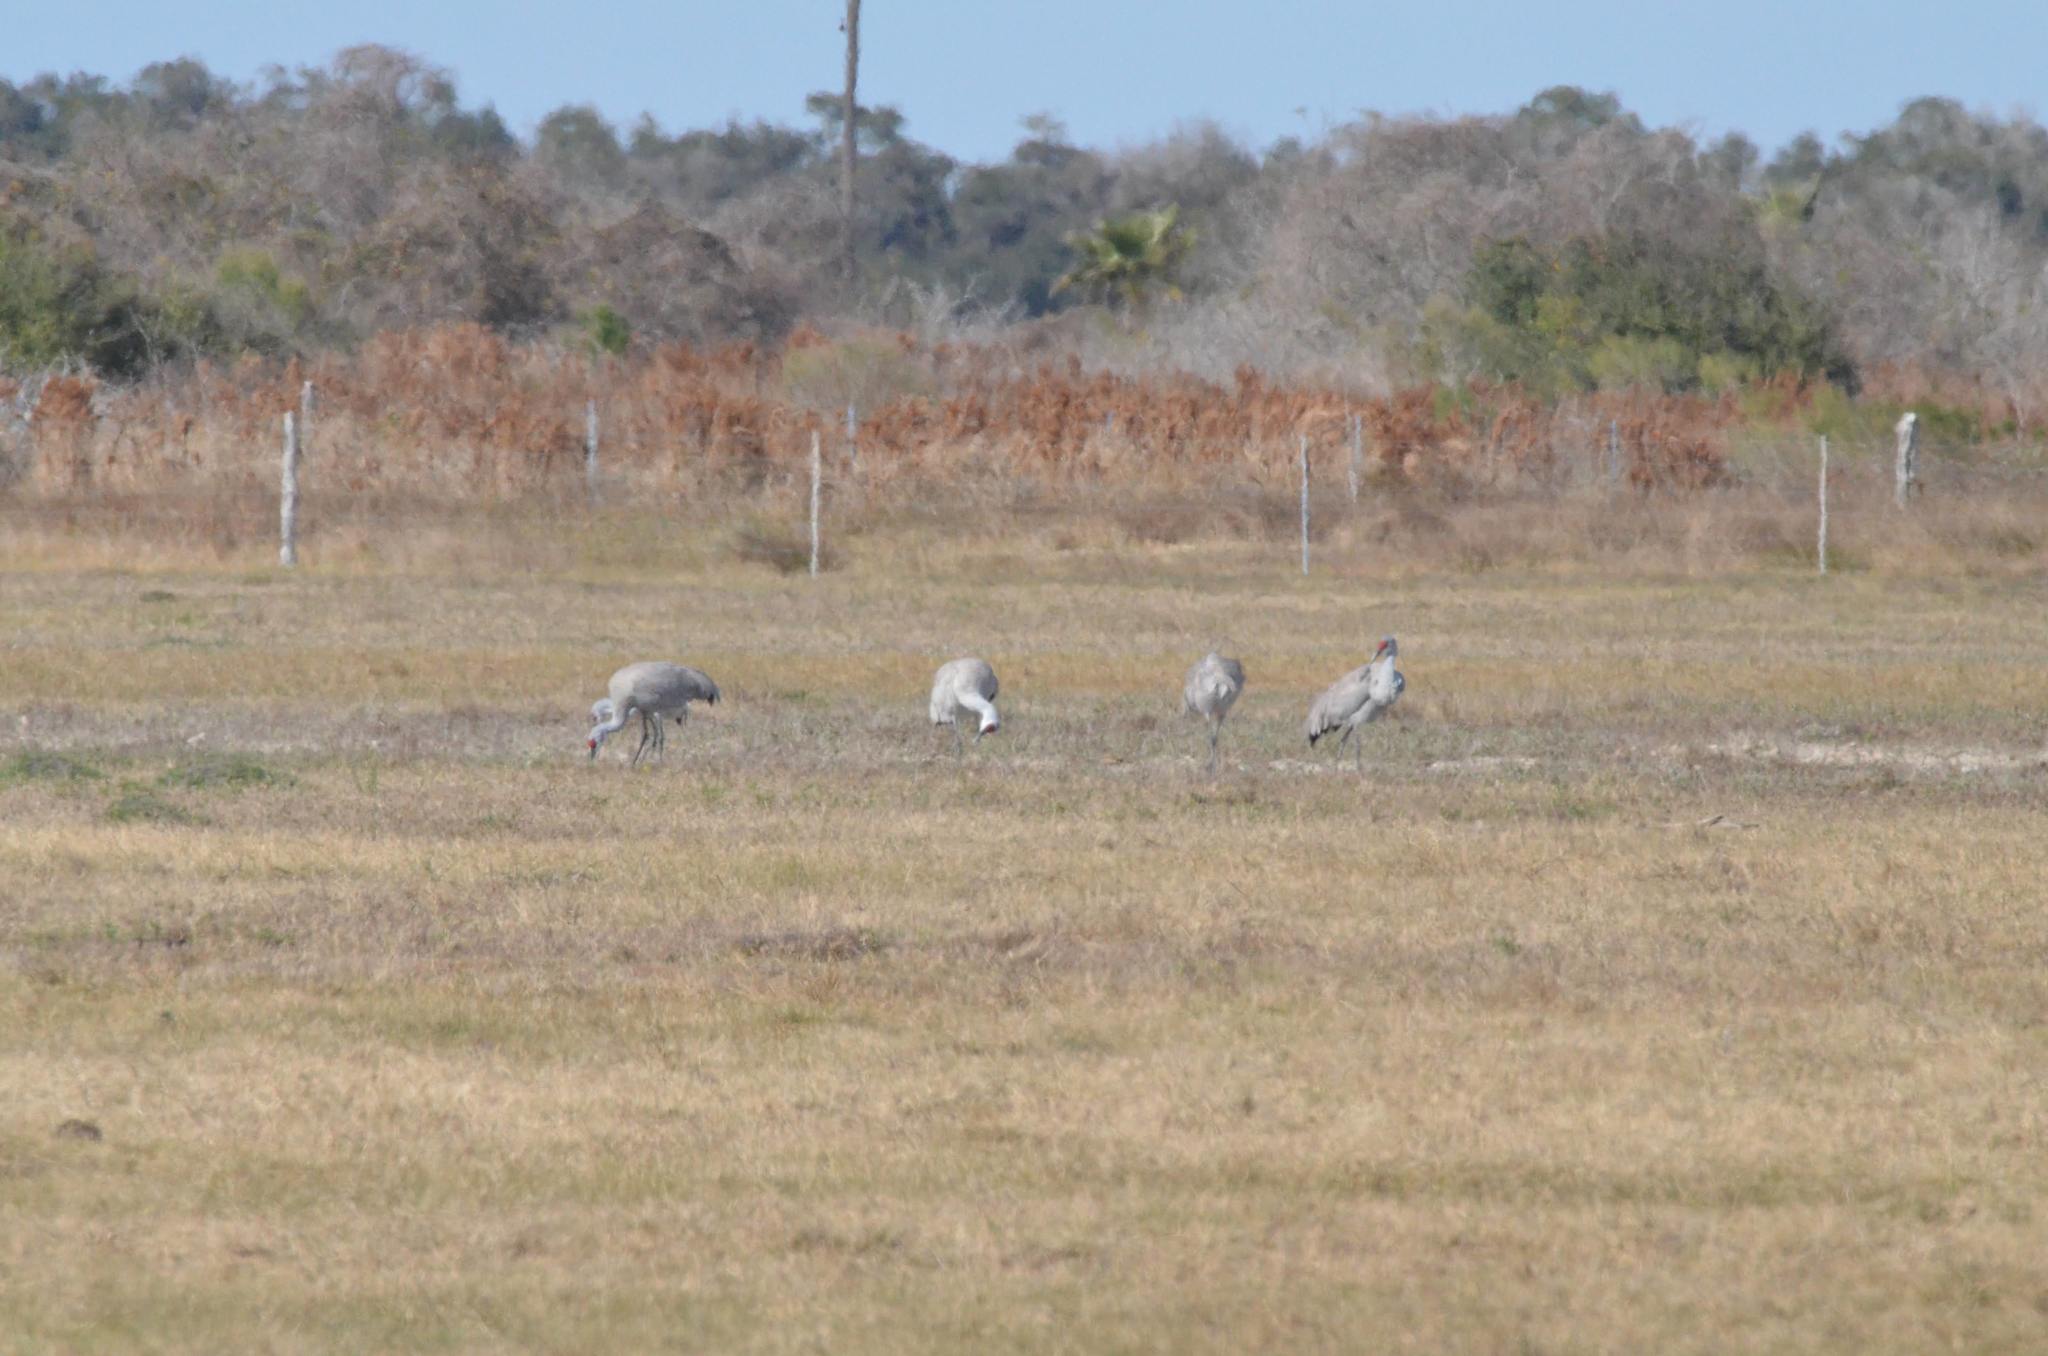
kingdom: Animalia
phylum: Chordata
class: Aves
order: Gruiformes
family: Gruidae
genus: Grus
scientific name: Grus canadensis
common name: Sandhill crane
